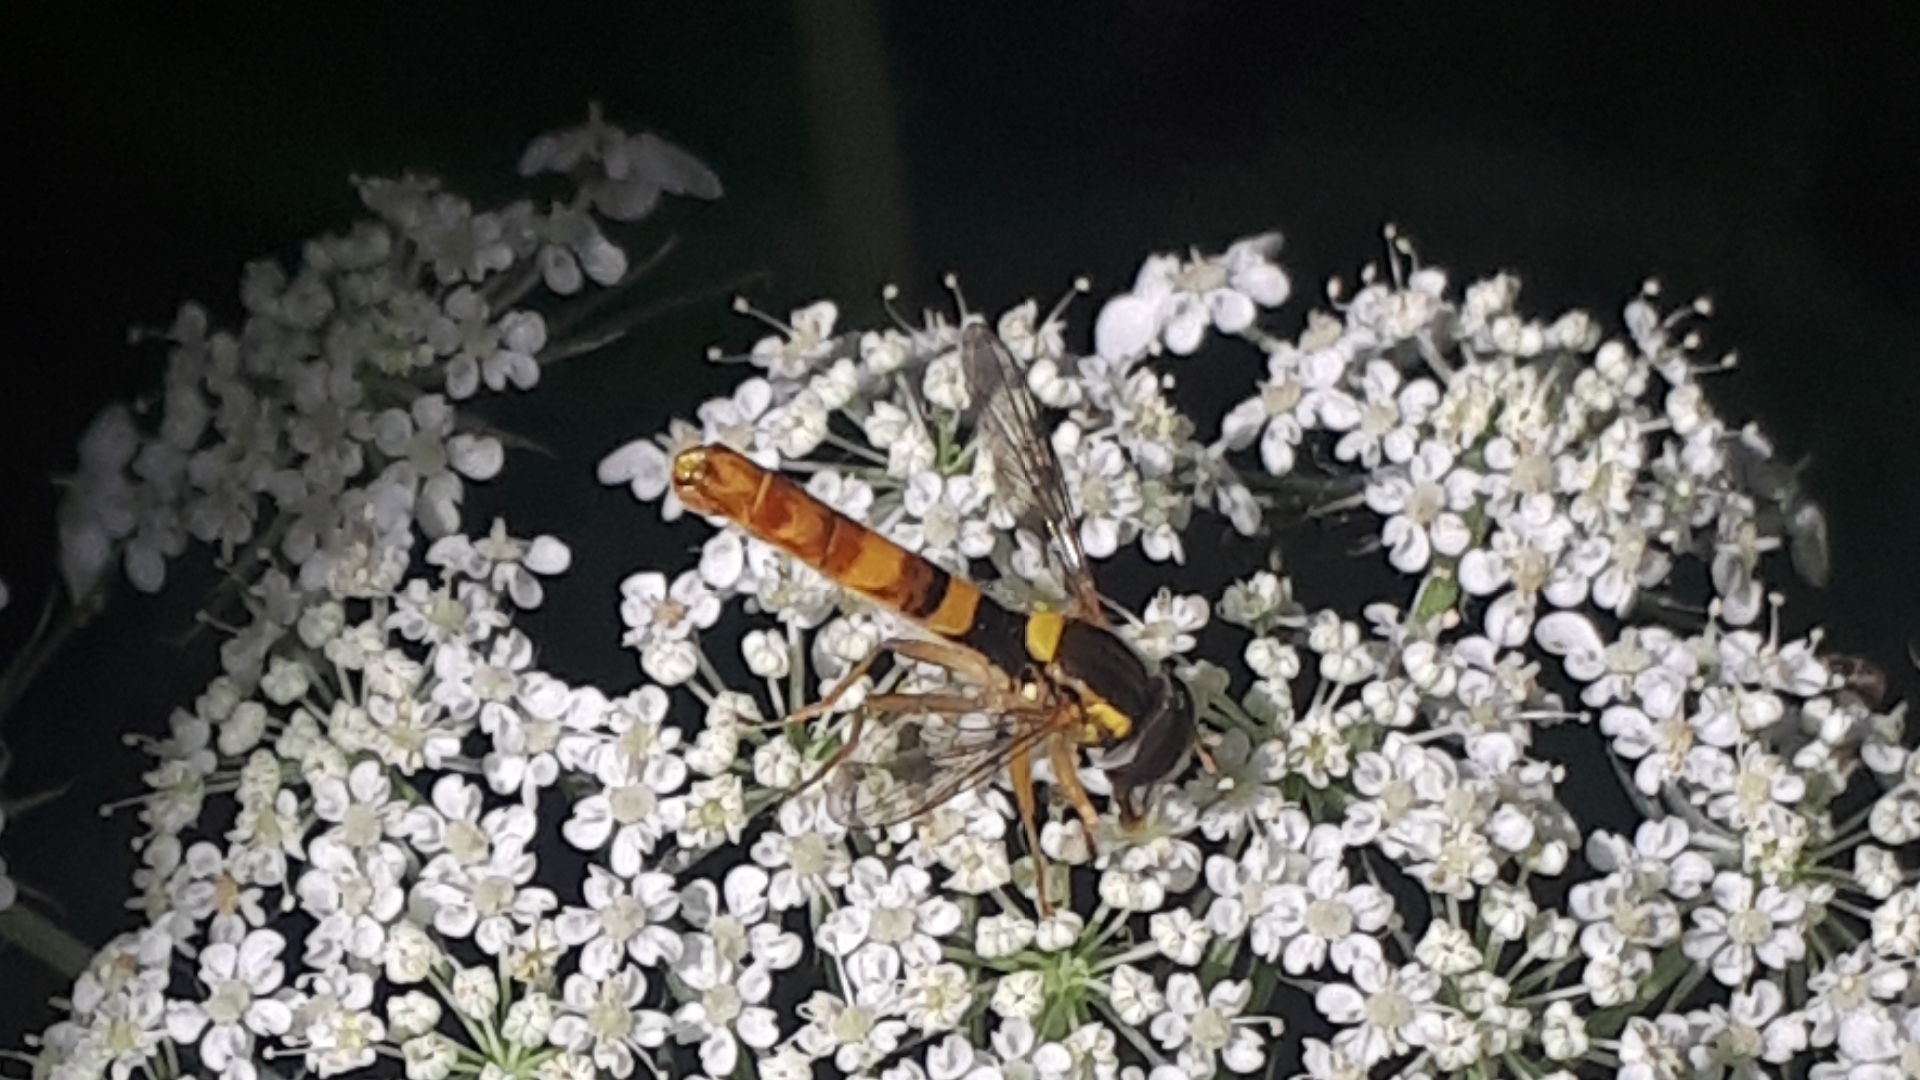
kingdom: Animalia
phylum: Arthropoda
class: Insecta
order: Diptera
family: Syrphidae
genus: Sphaerophoria
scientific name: Sphaerophoria scripta
